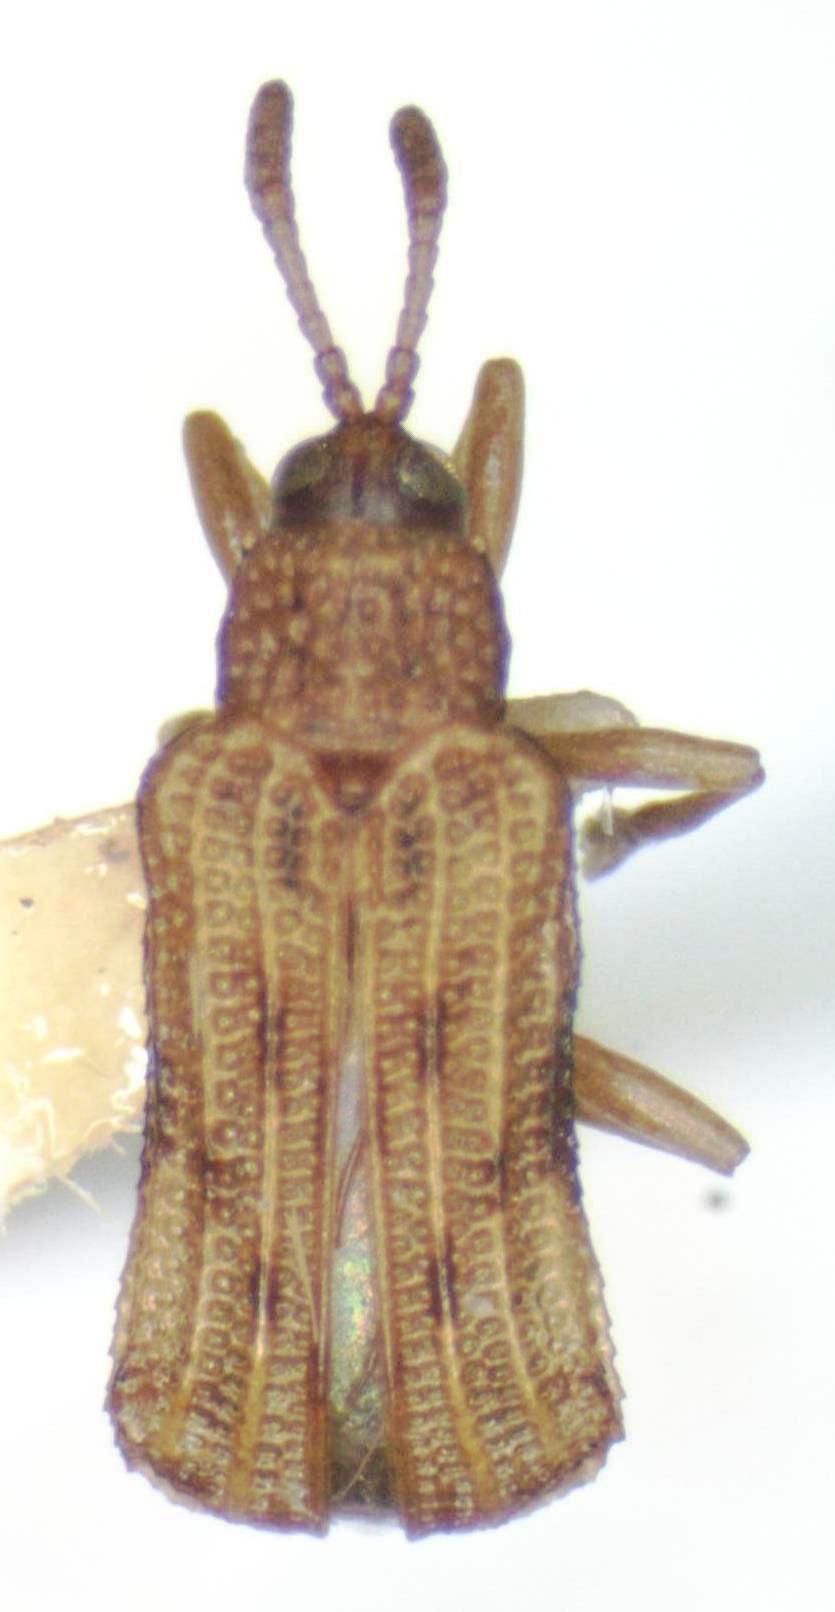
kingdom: Animalia
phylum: Arthropoda
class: Insecta
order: Coleoptera
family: Chrysomelidae
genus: Sumitrosis
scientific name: Sumitrosis fryi
